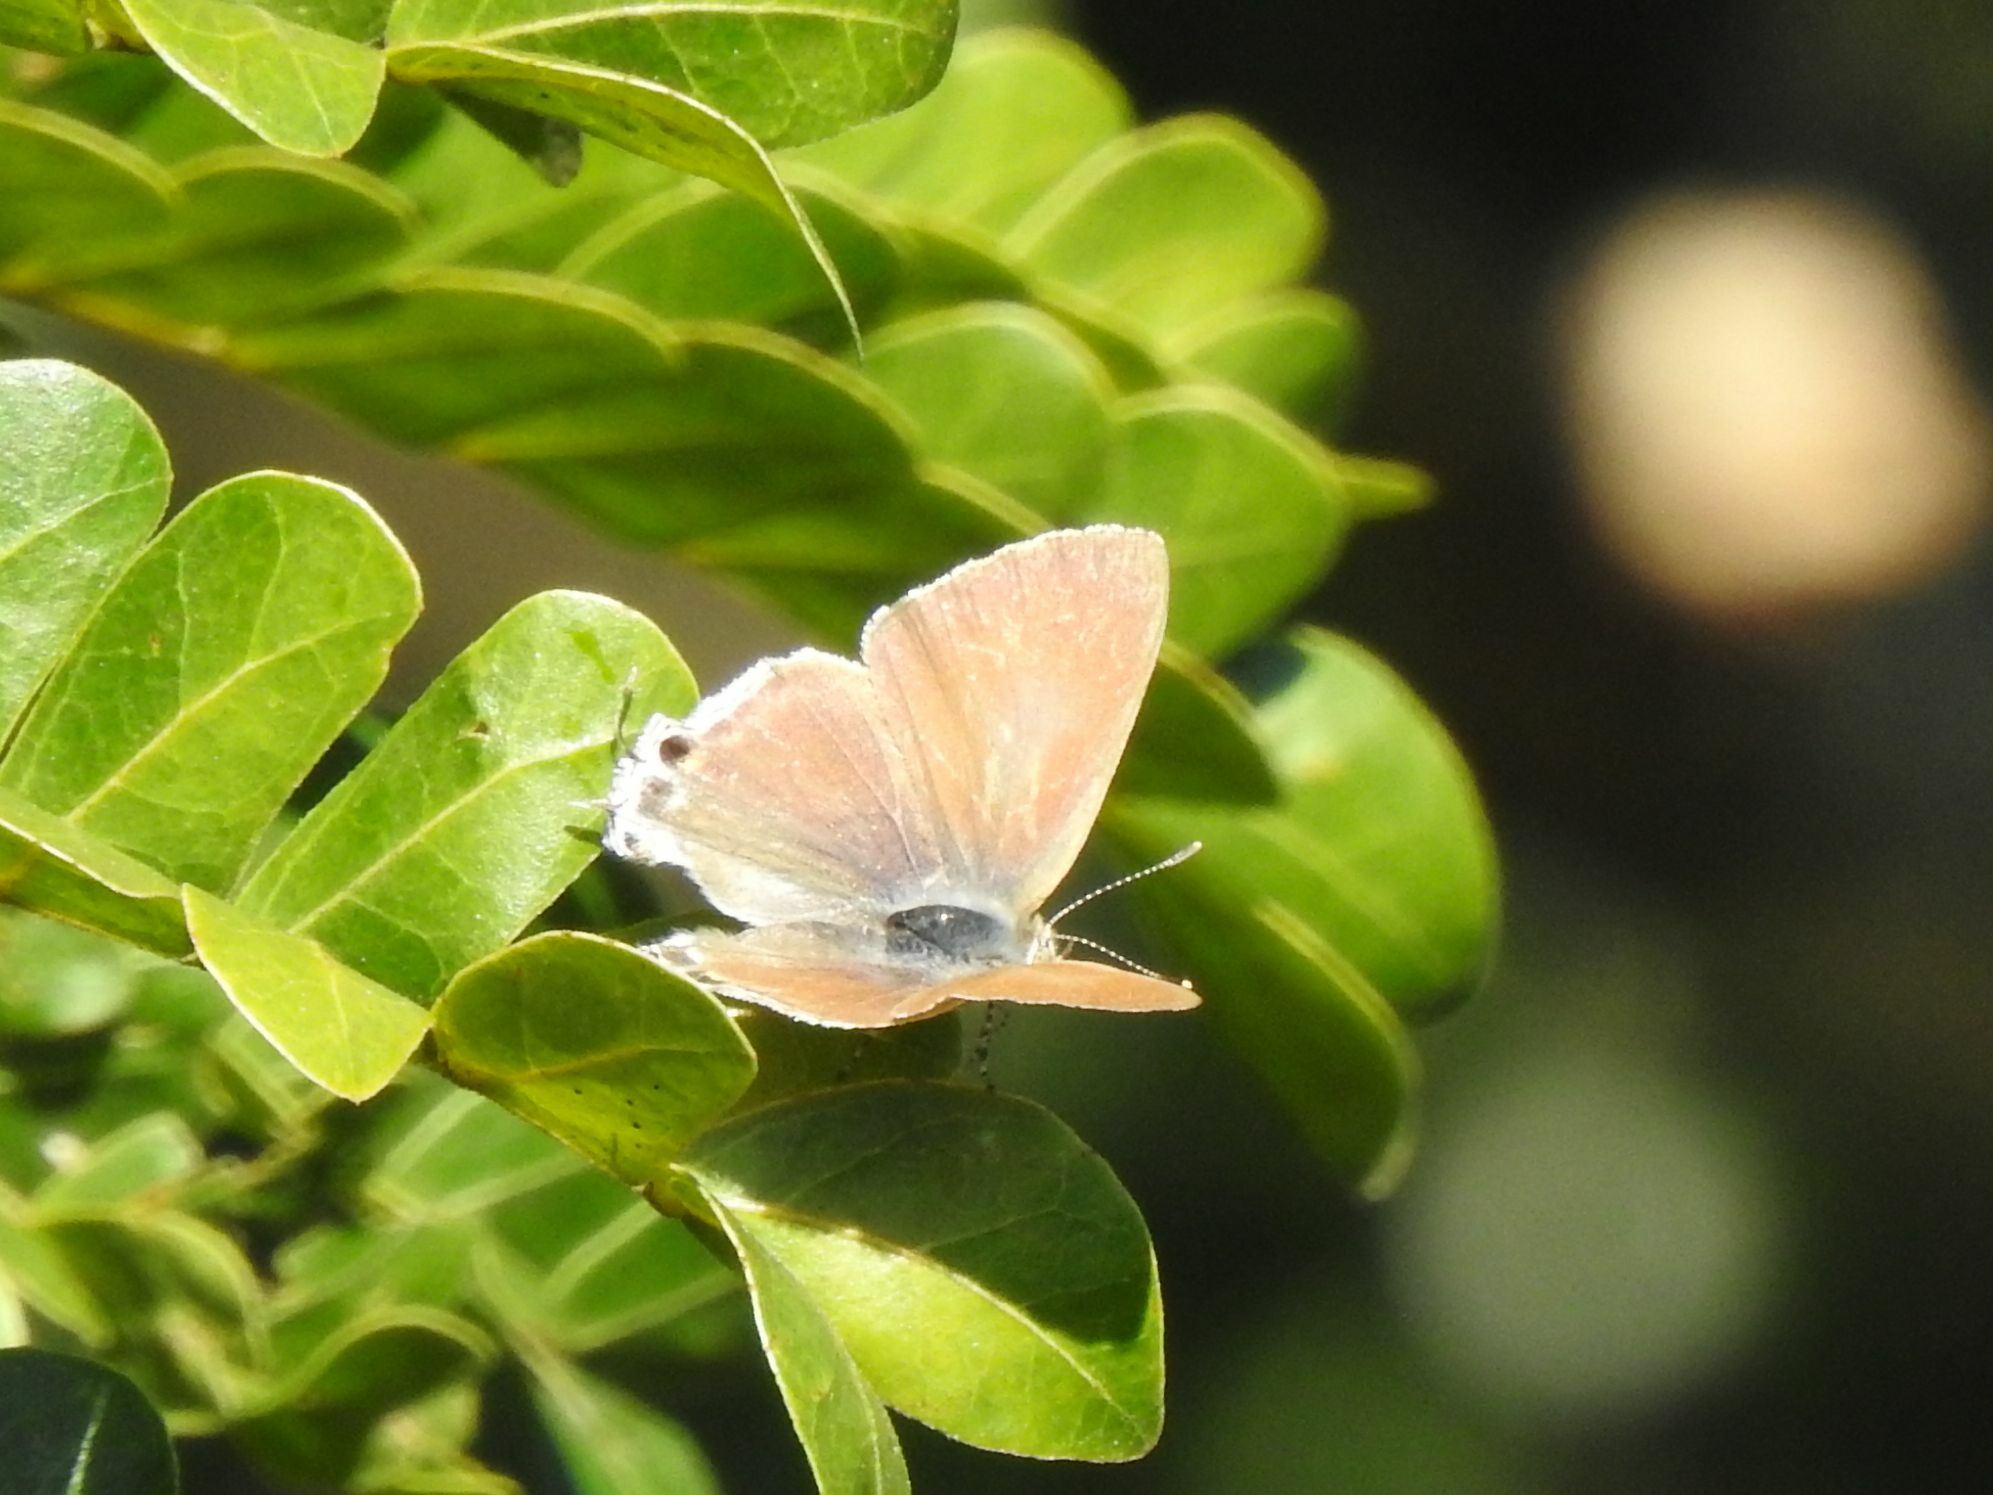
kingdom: Animalia
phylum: Arthropoda
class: Insecta
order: Lepidoptera
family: Lycaenidae
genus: Hypolycaena
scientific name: Hypolycaena philippus
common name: Common hairstreak
